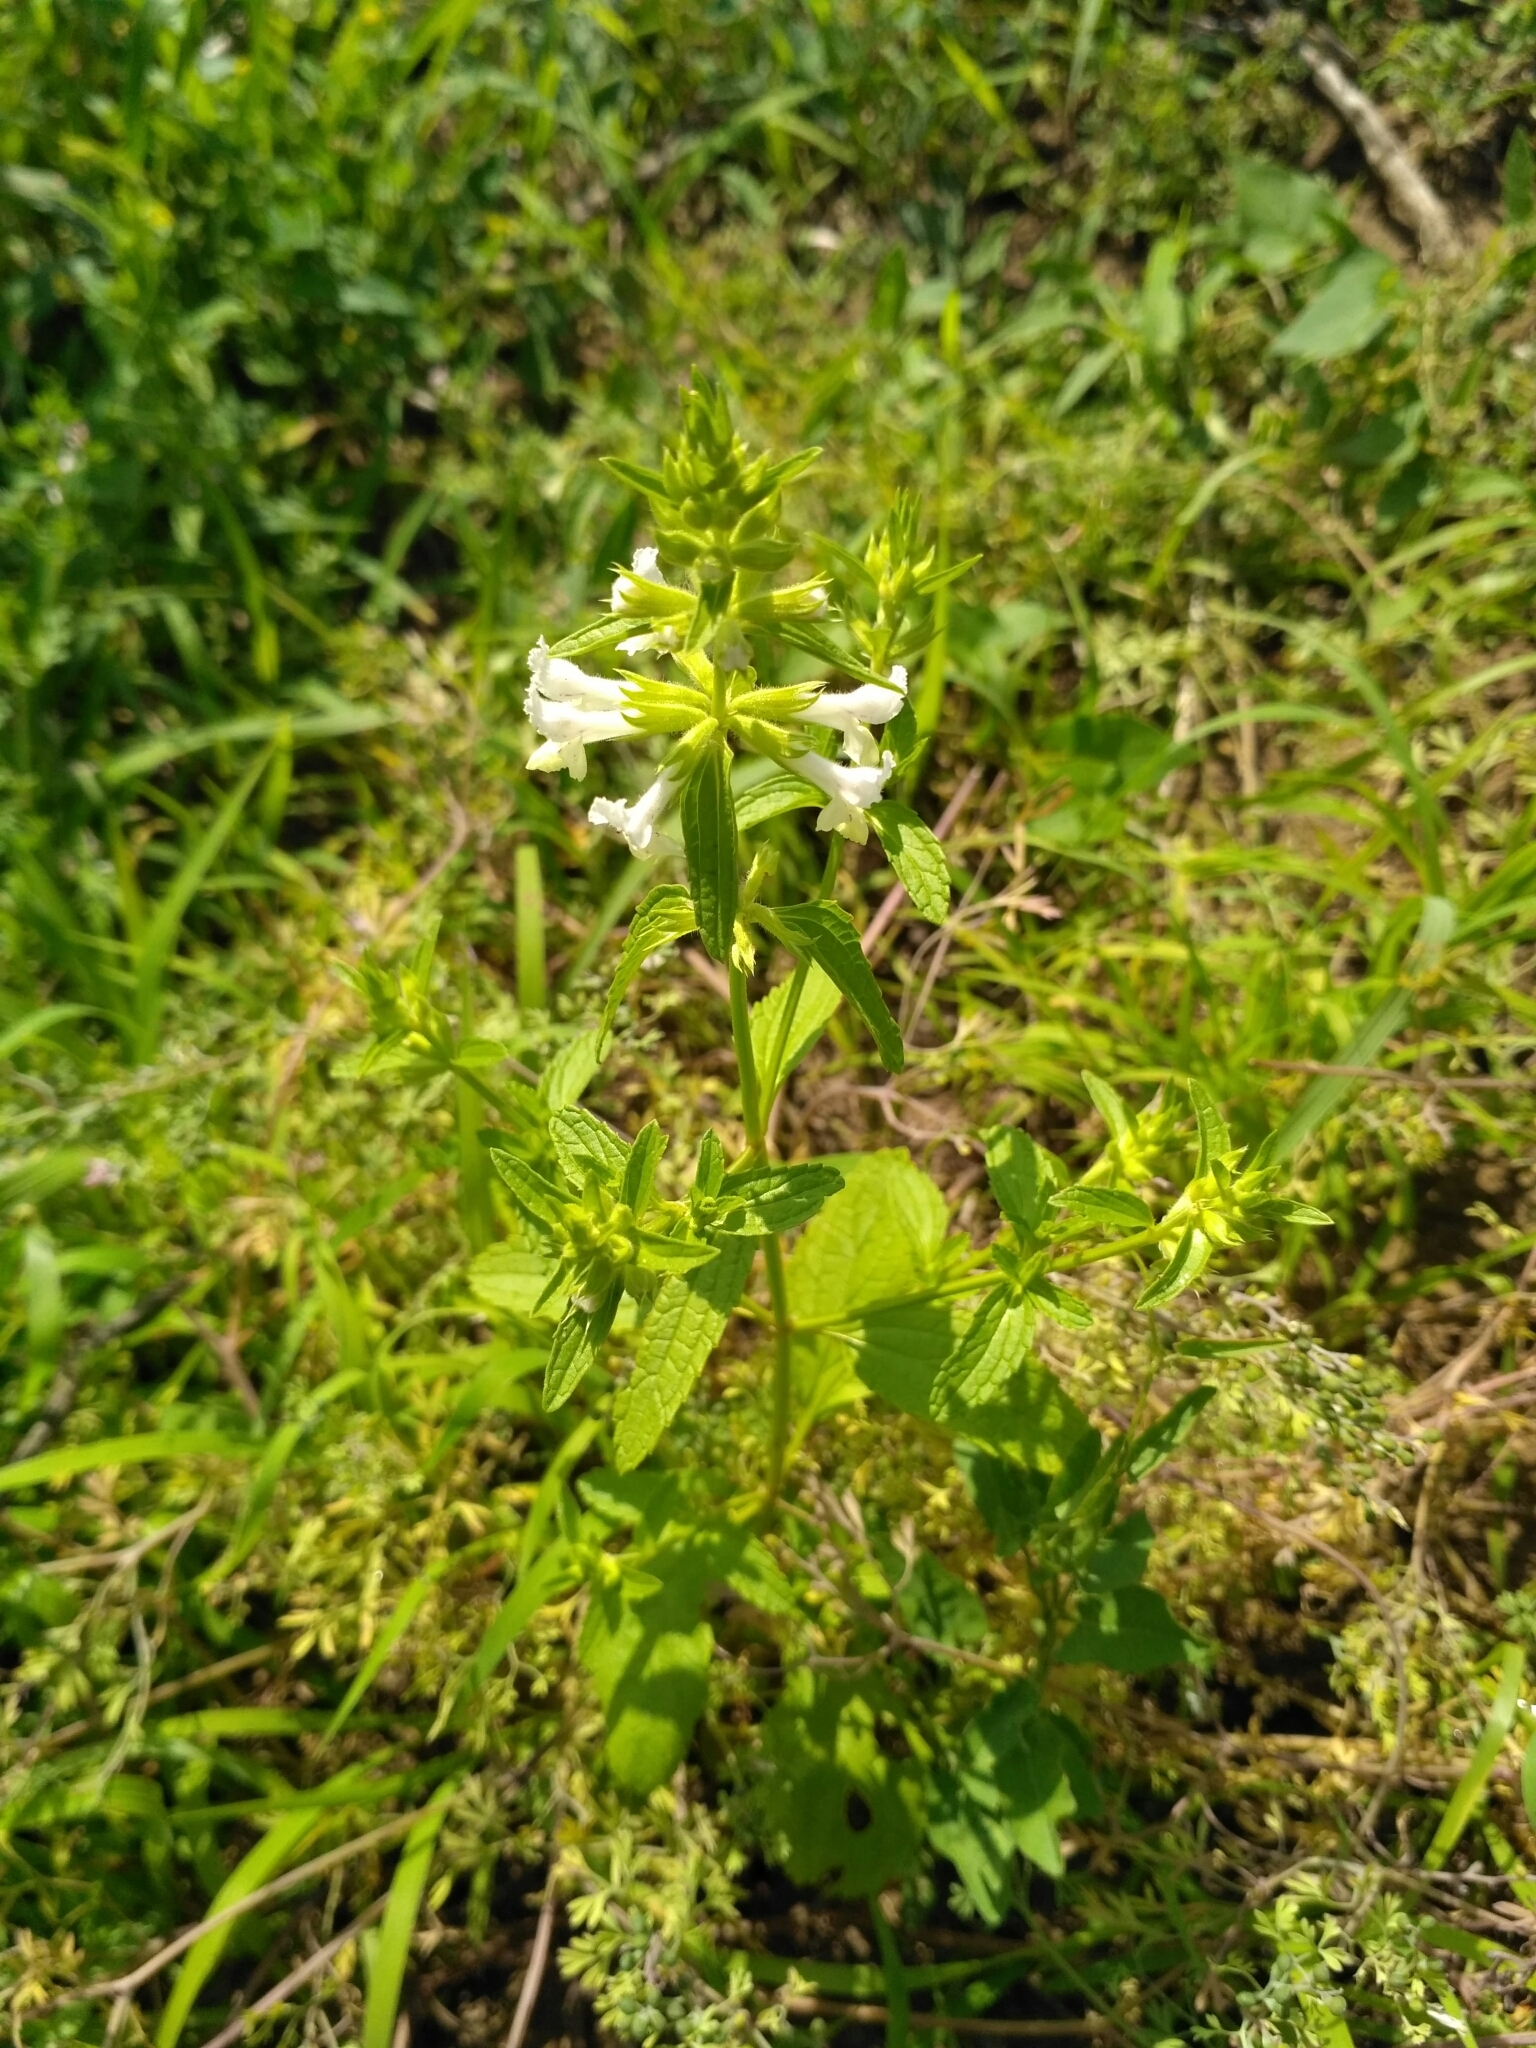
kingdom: Plantae
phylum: Tracheophyta
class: Magnoliopsida
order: Lamiales
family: Lamiaceae
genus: Stachys
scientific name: Stachys annua
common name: Annual yellow-woundwort
